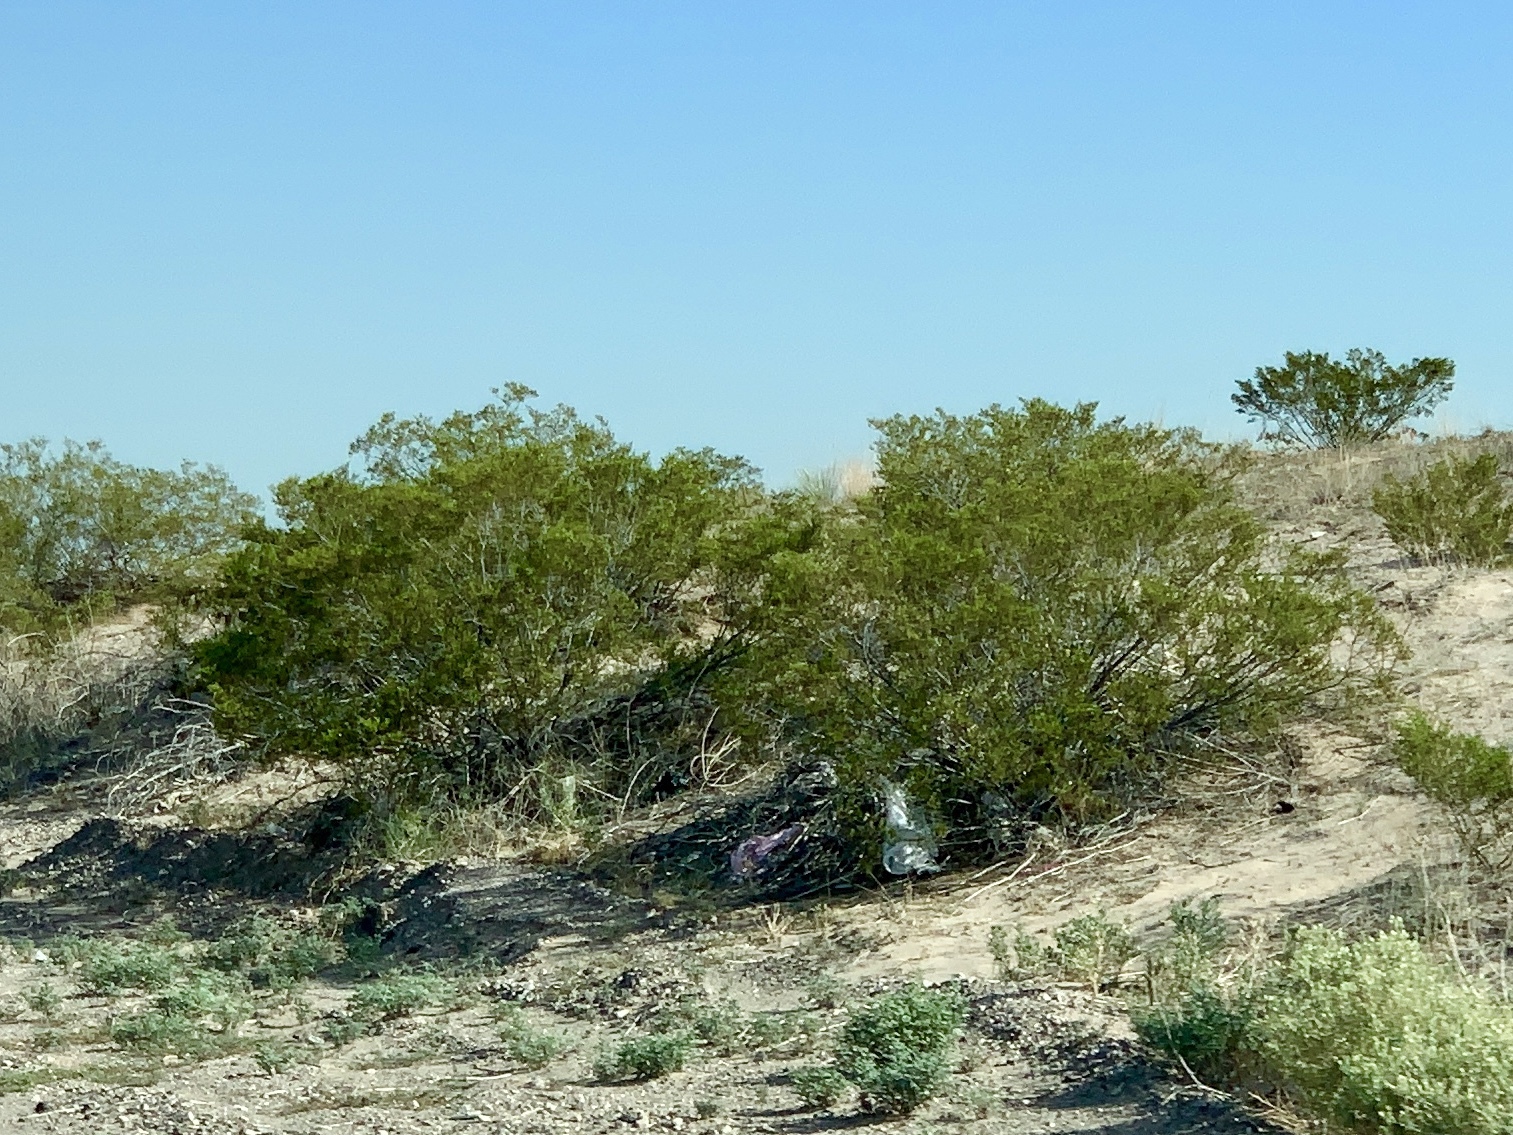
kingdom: Plantae
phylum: Tracheophyta
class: Magnoliopsida
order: Zygophyllales
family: Zygophyllaceae
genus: Larrea
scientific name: Larrea tridentata
